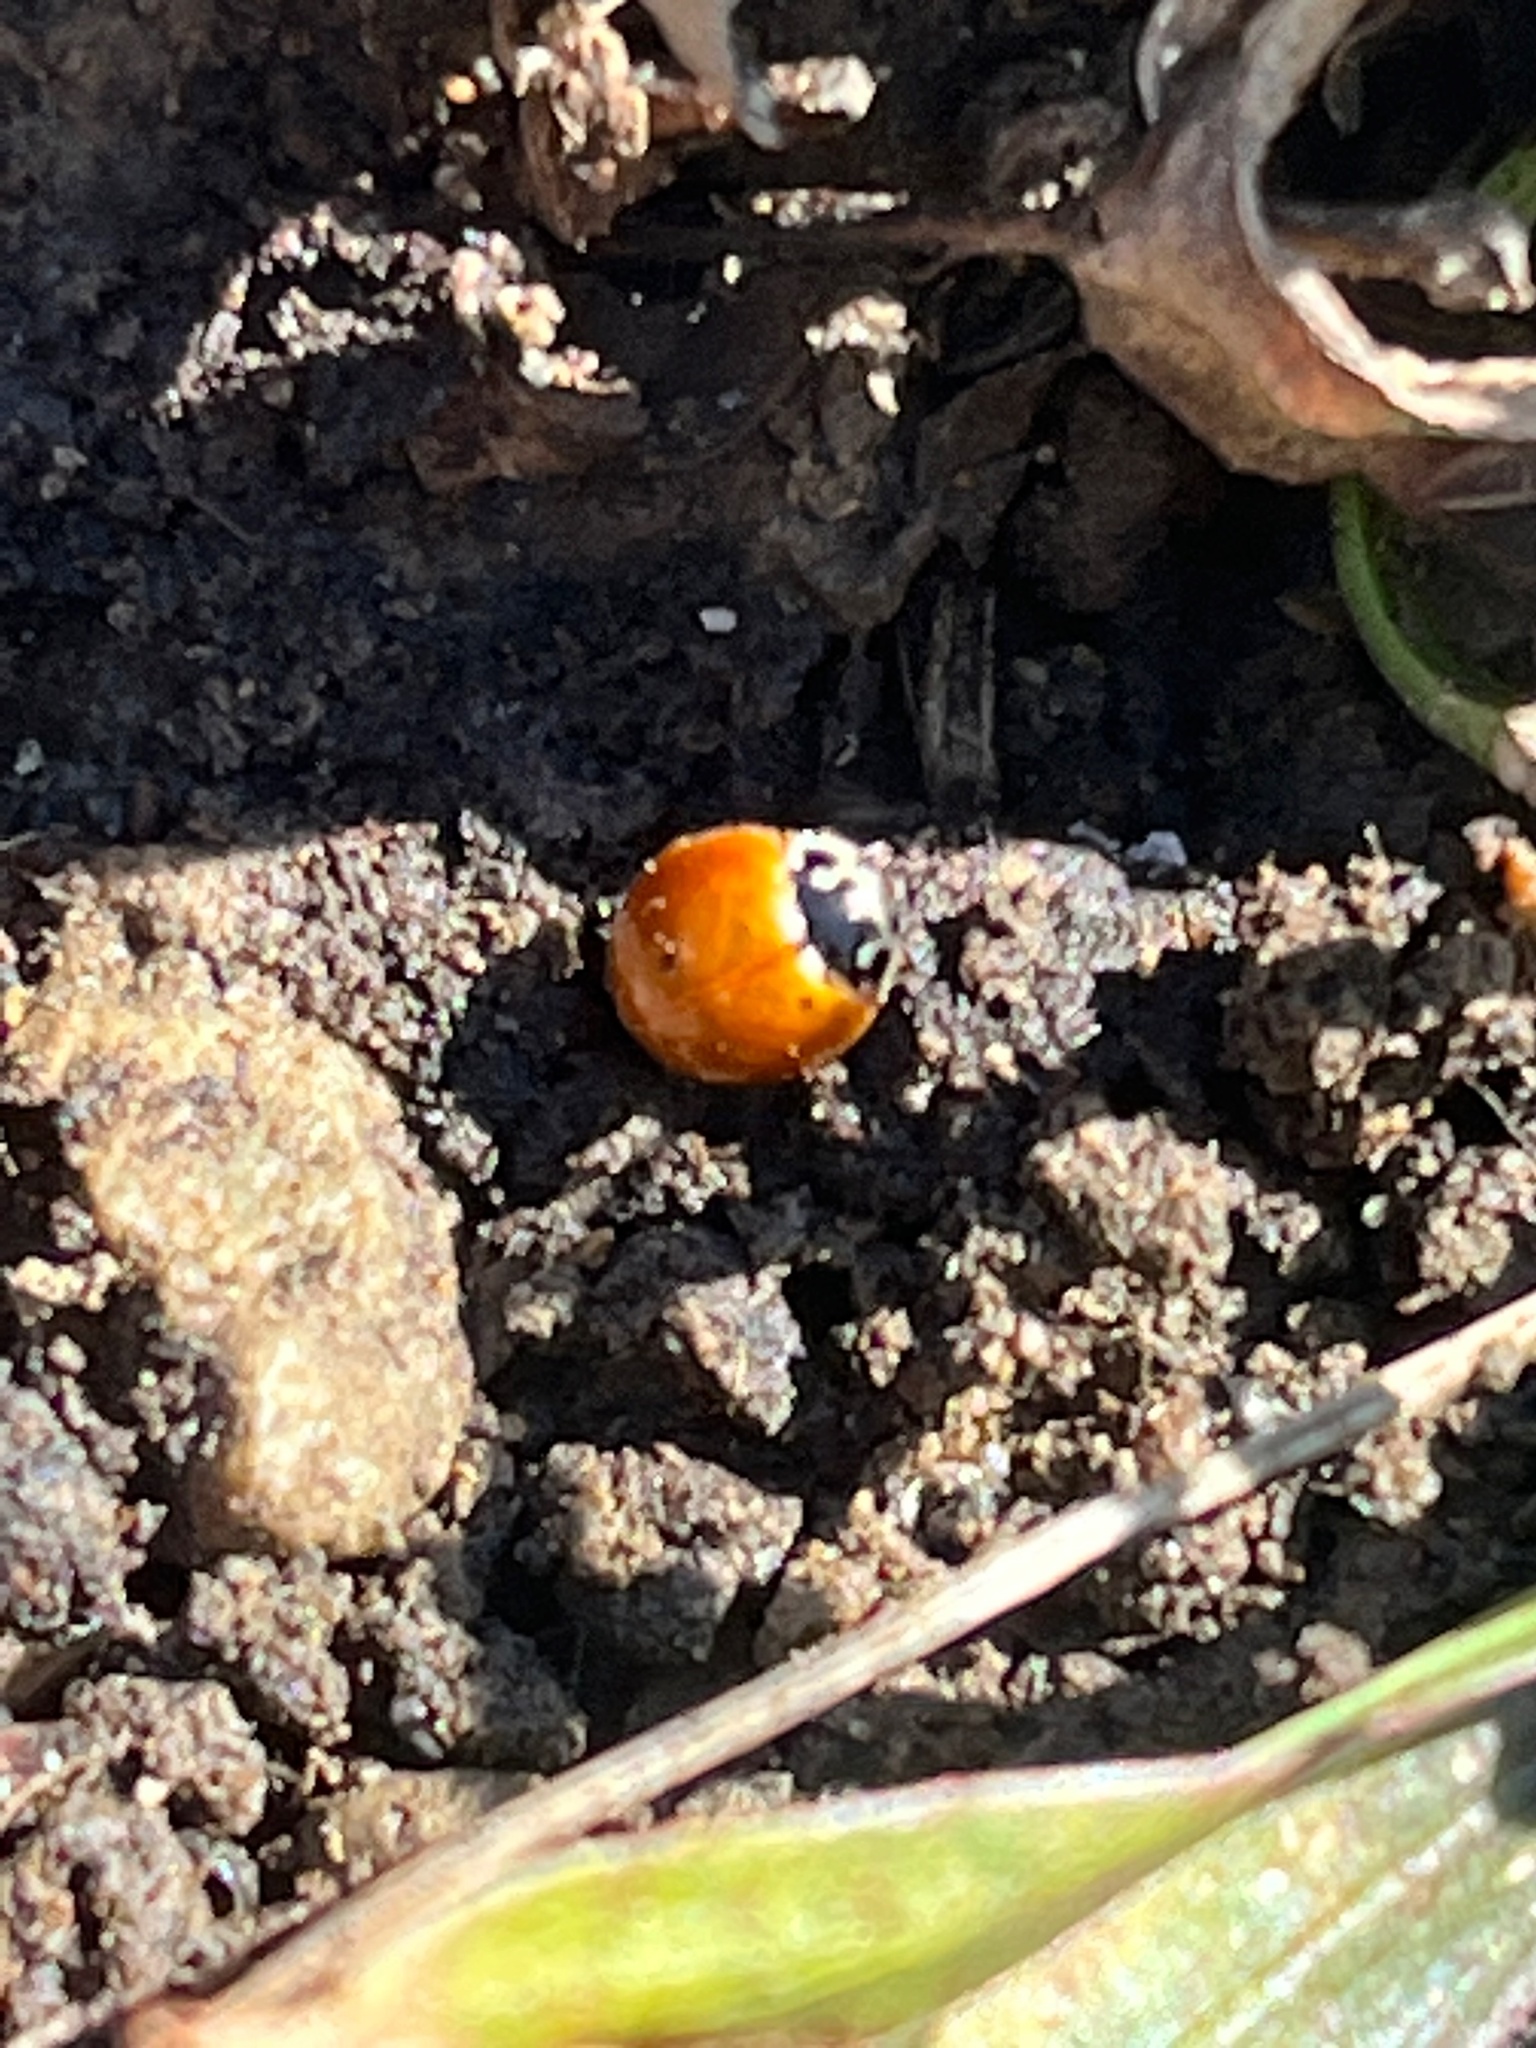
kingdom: Animalia
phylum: Arthropoda
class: Insecta
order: Coleoptera
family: Coccinellidae
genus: Cycloneda
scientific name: Cycloneda munda
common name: Polished lady beetle
